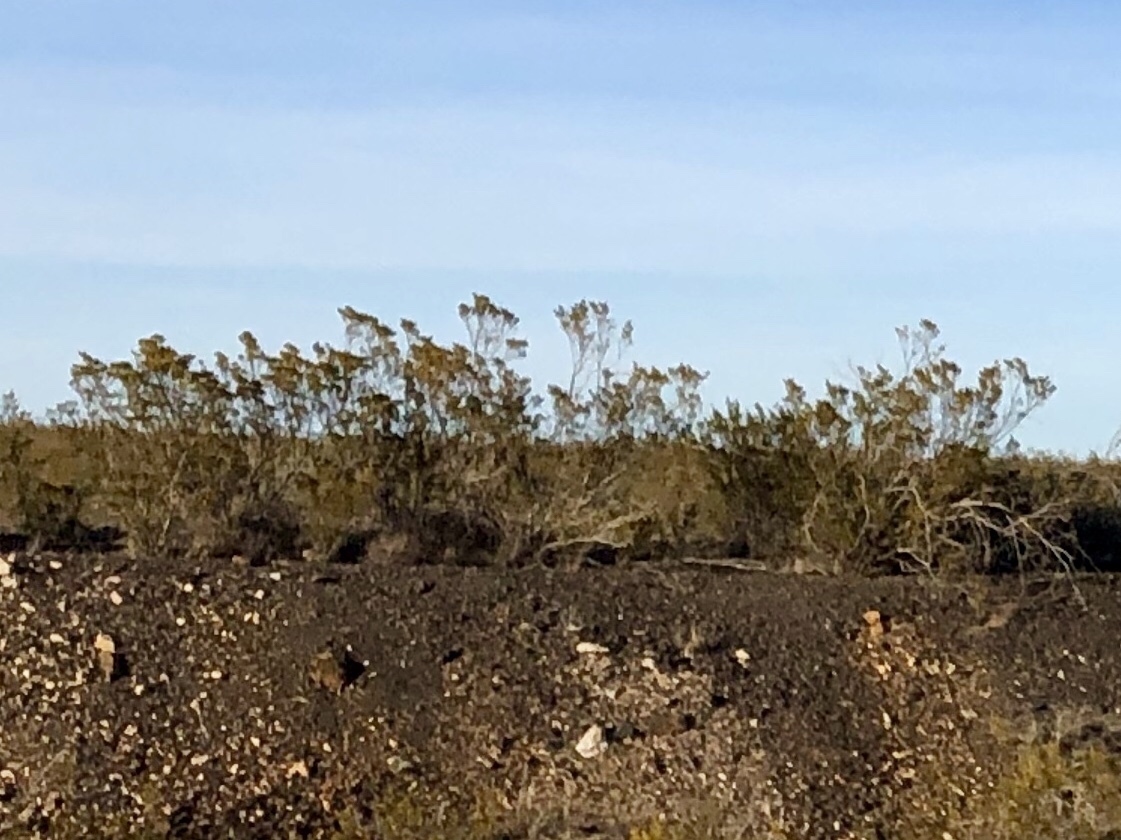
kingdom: Plantae
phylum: Tracheophyta
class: Magnoliopsida
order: Zygophyllales
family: Zygophyllaceae
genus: Larrea
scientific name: Larrea tridentata
